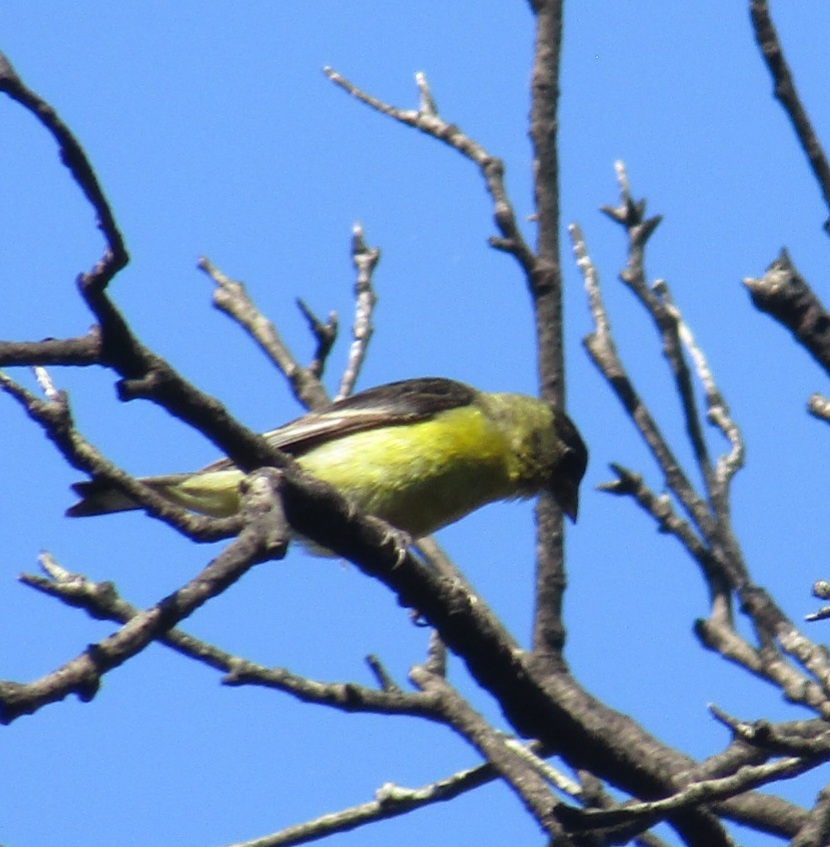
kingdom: Animalia
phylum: Chordata
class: Aves
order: Passeriformes
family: Fringillidae
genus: Spinus
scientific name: Spinus psaltria
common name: Lesser goldfinch
